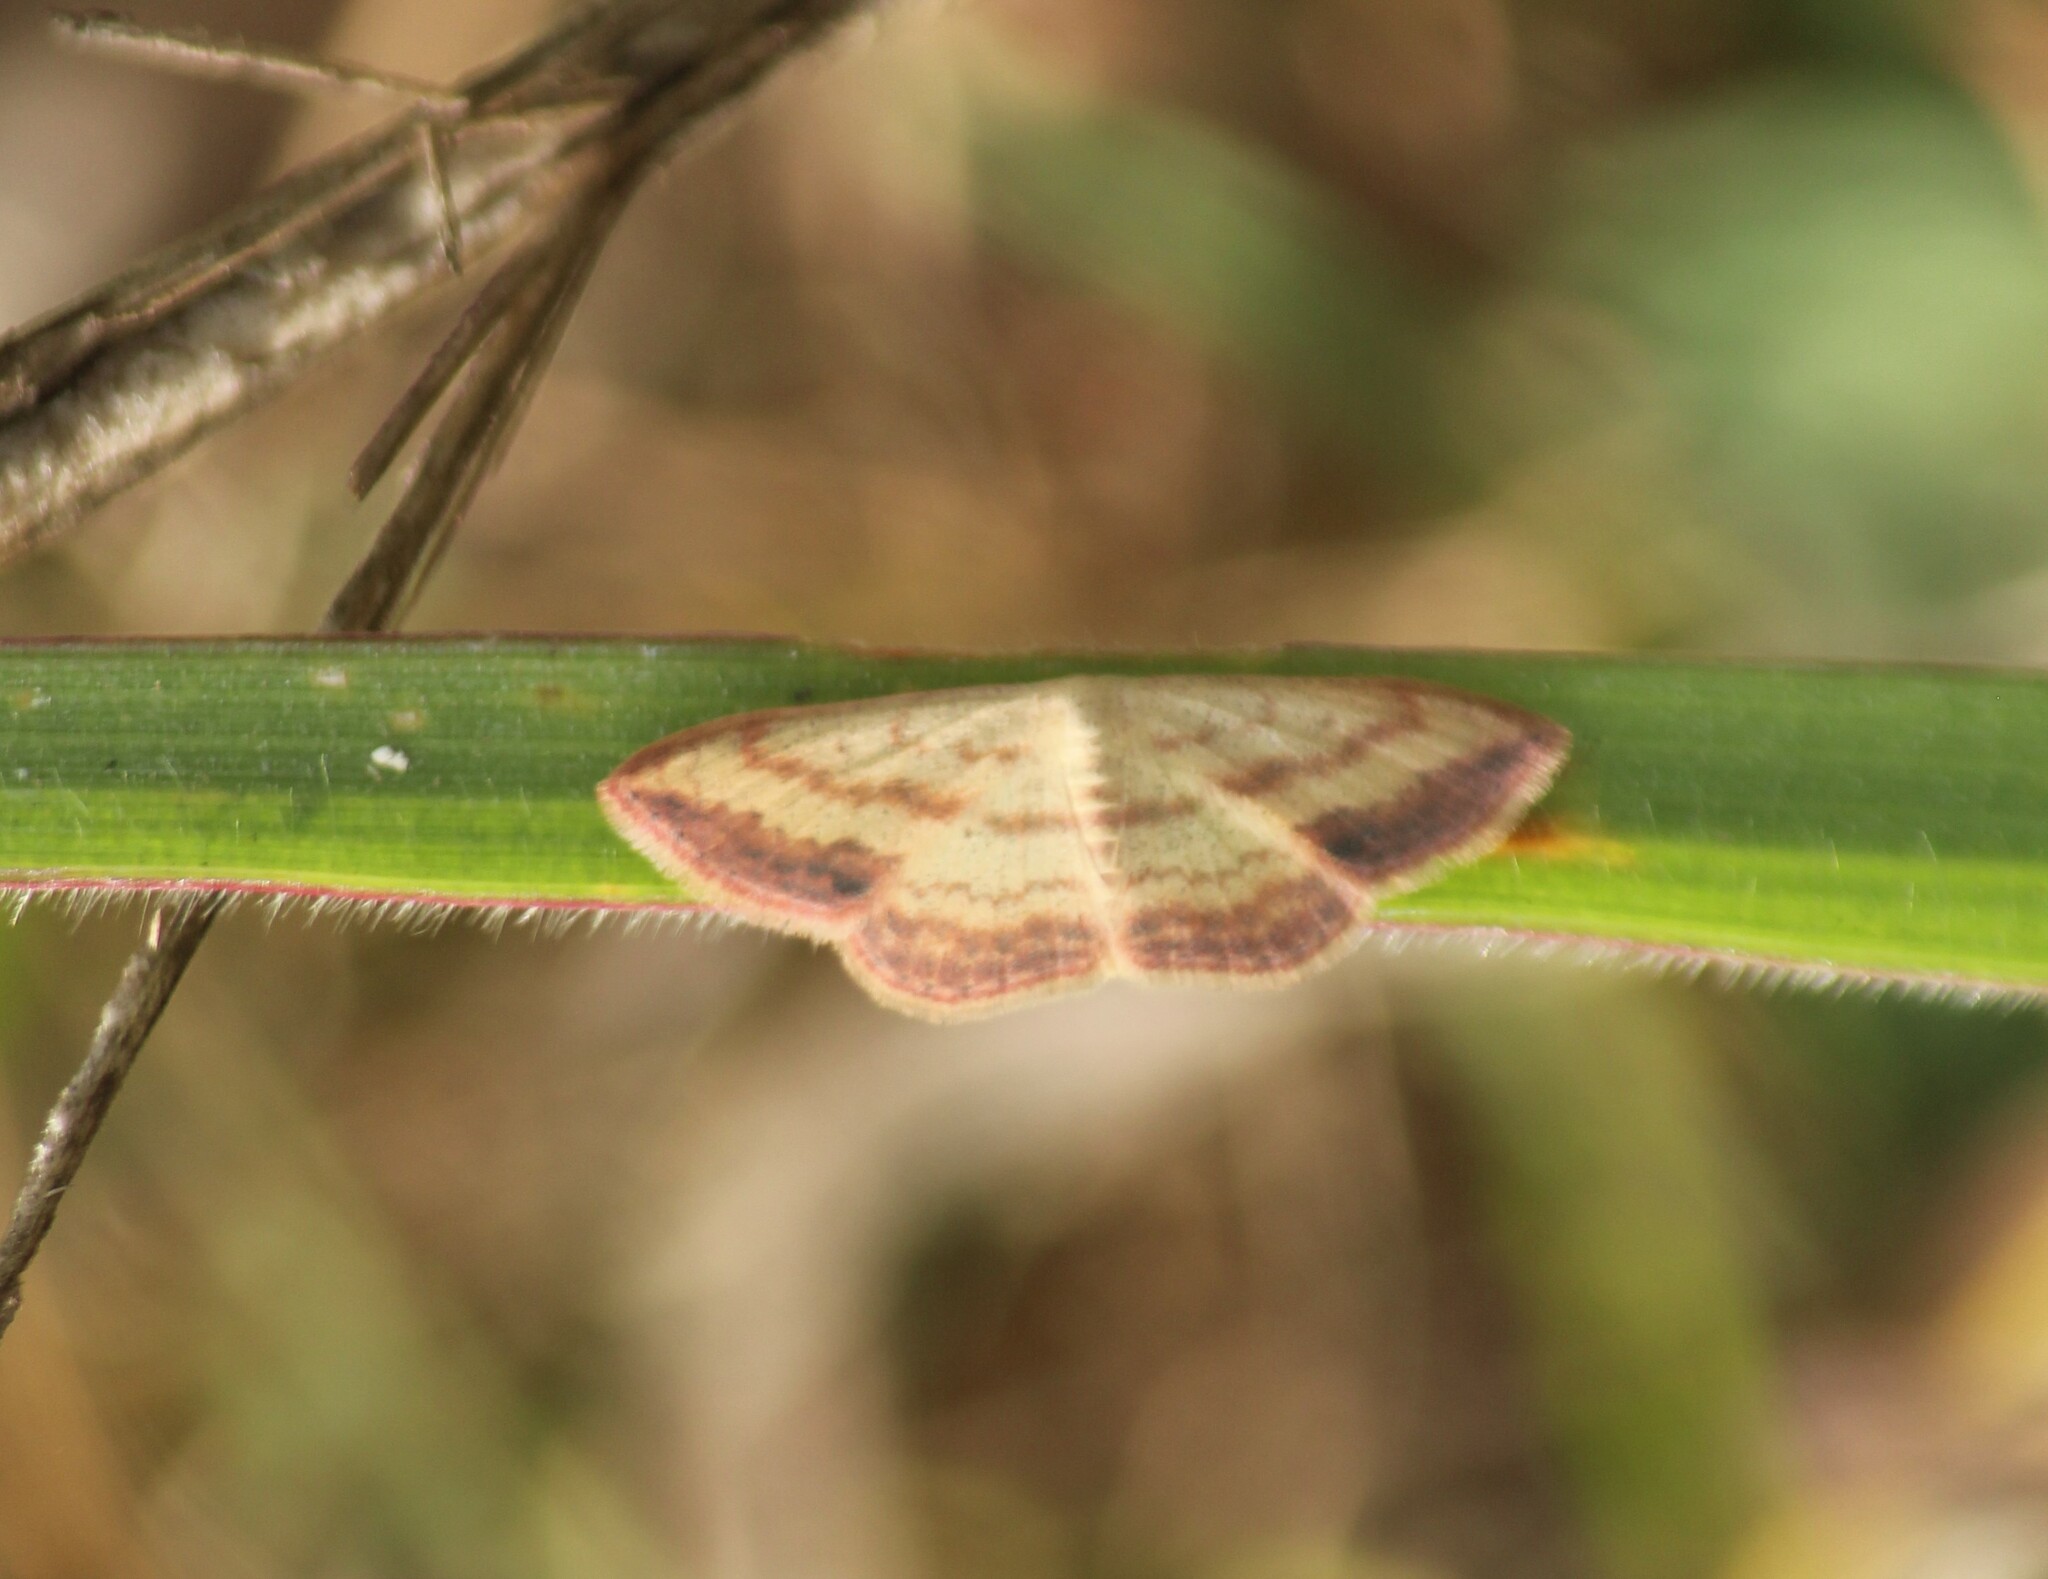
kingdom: Animalia
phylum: Arthropoda
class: Insecta
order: Lepidoptera
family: Geometridae
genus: Scopula
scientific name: Scopula caesaria
